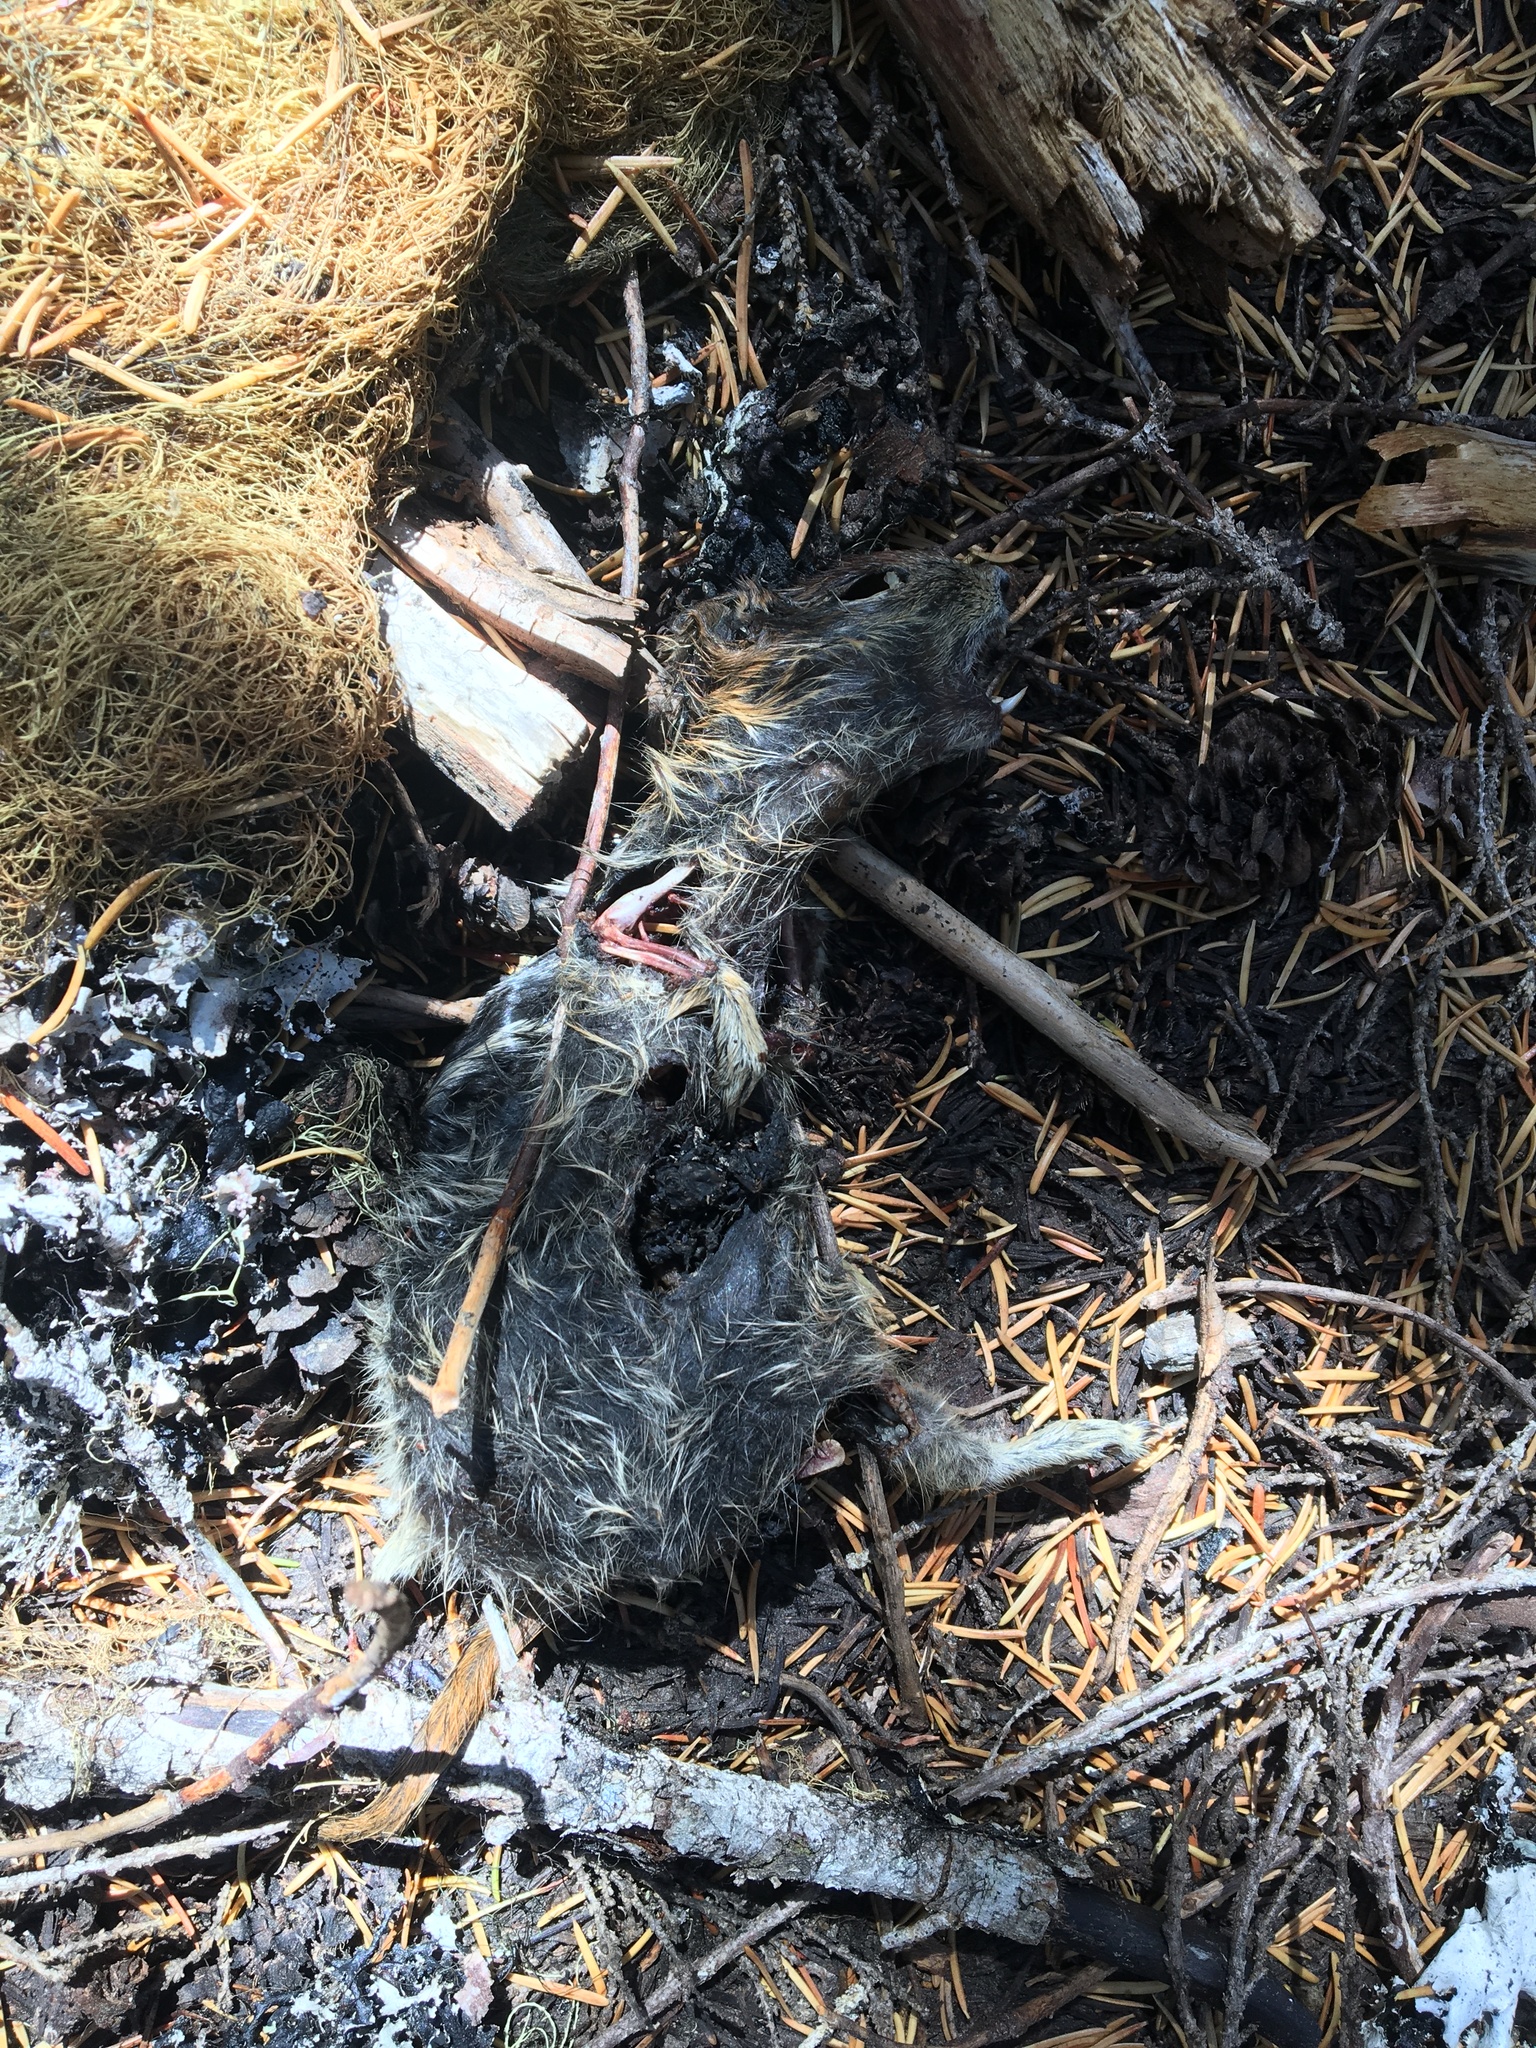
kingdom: Animalia
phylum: Chordata
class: Mammalia
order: Rodentia
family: Sciuridae
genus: Tamiasciurus
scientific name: Tamiasciurus douglasii
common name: Douglas's squirrel
